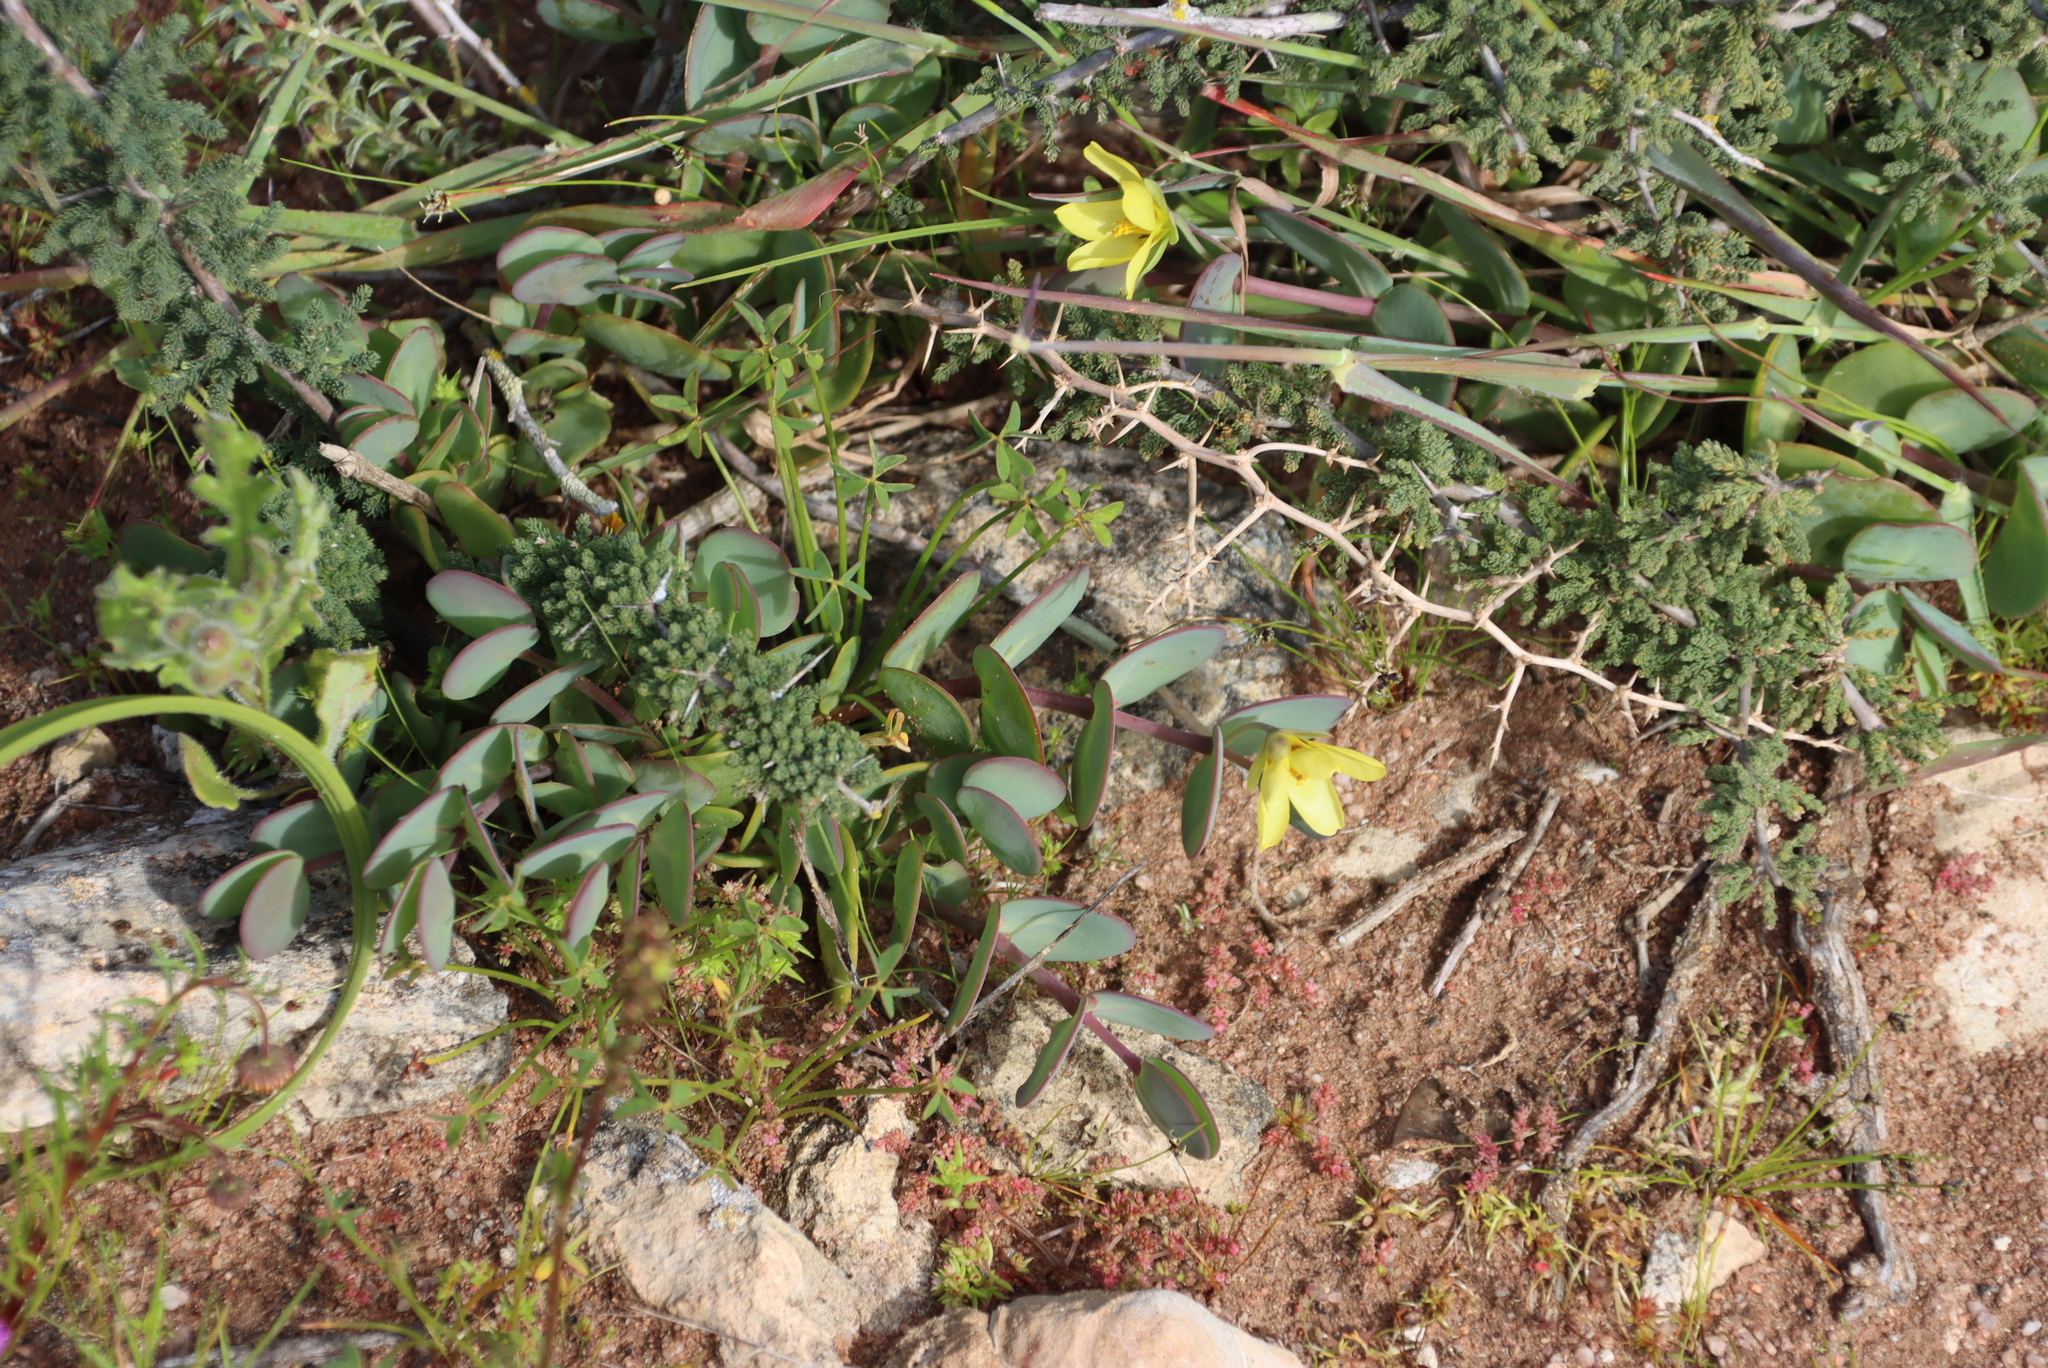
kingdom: Plantae
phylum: Tracheophyta
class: Magnoliopsida
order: Zygophyllales
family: Zygophyllaceae
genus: Roepera
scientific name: Roepera cordifolia
